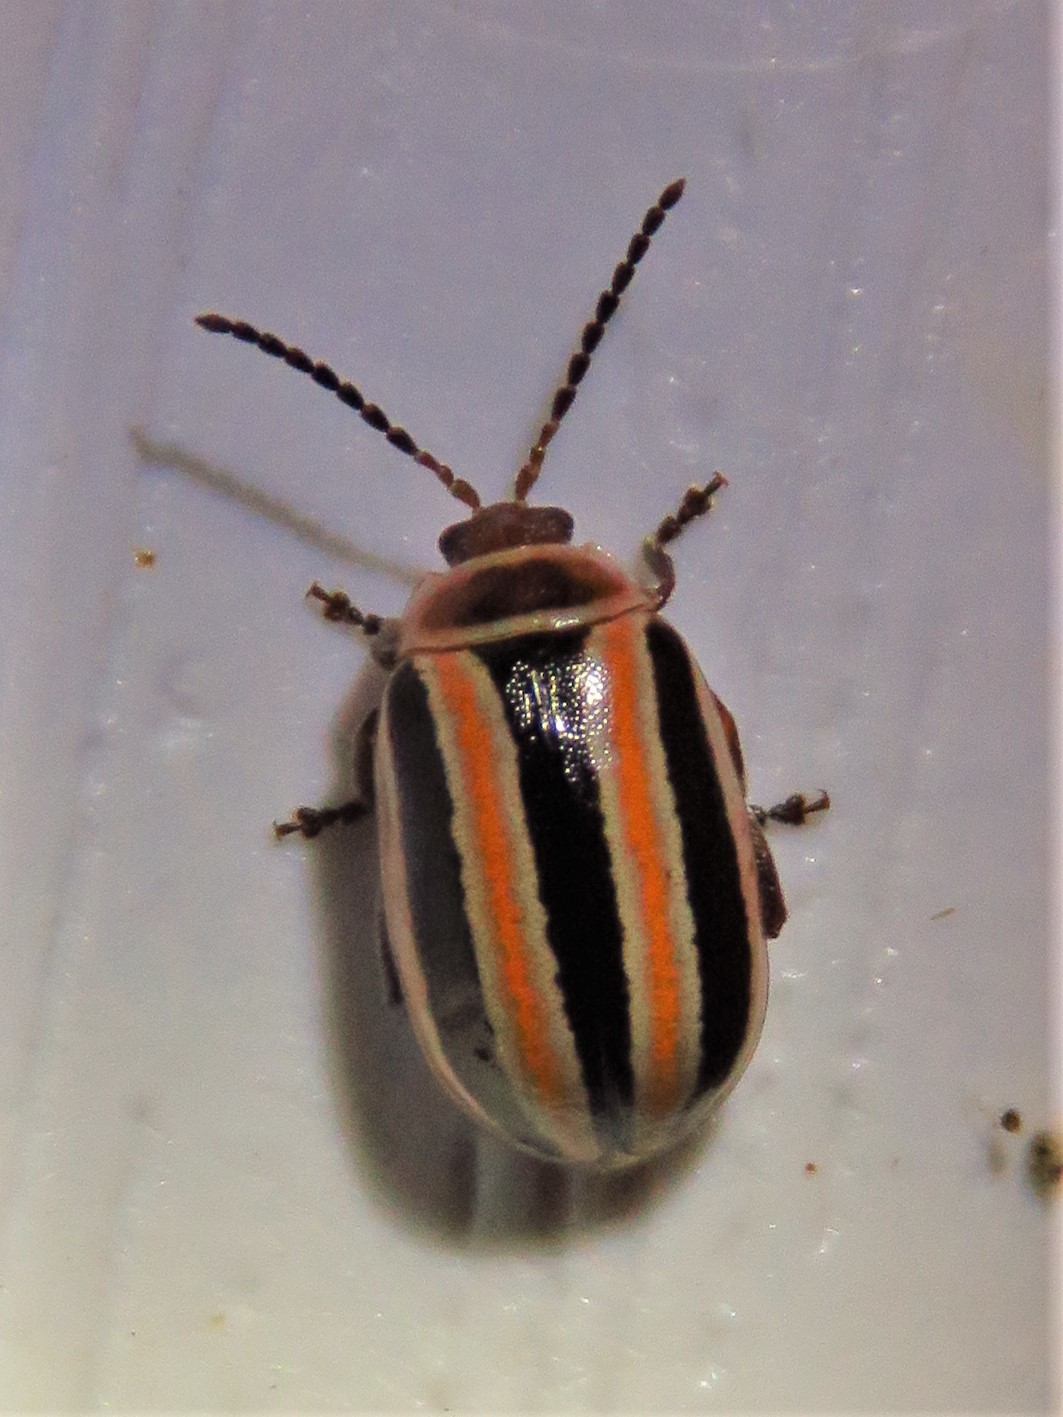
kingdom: Animalia
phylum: Arthropoda
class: Insecta
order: Coleoptera
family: Chrysomelidae
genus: Kuschelina
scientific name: Kuschelina fallax
